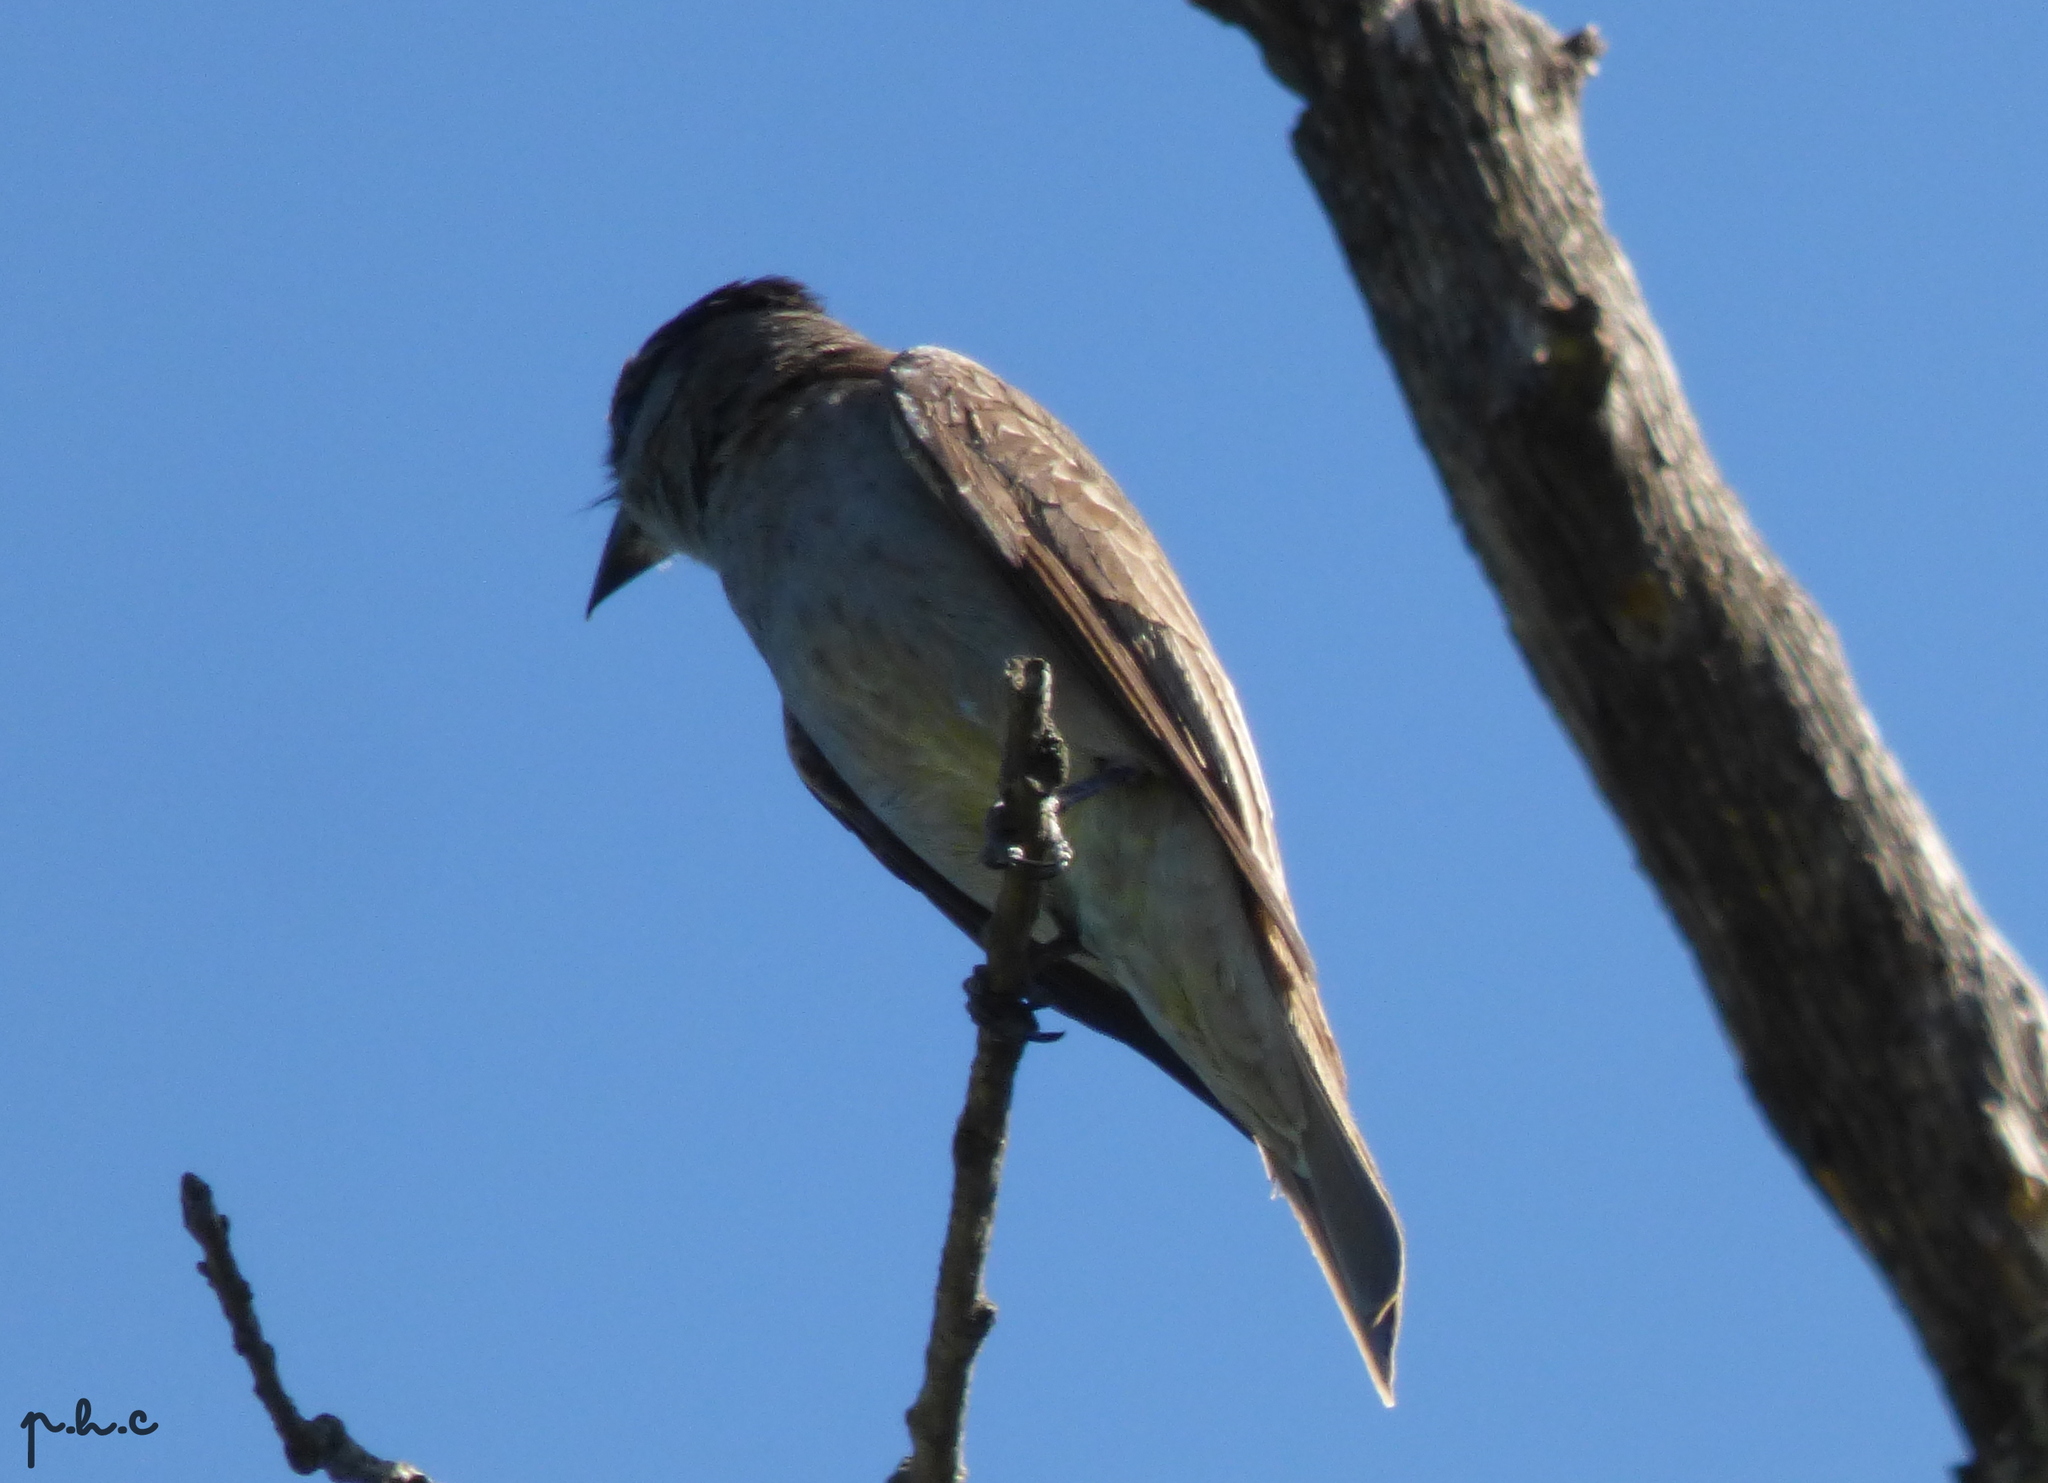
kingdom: Animalia
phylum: Chordata
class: Aves
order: Passeriformes
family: Tyrannidae
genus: Empidonomus
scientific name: Empidonomus aurantioatrocristatus
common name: Crowned slaty flycatcher
